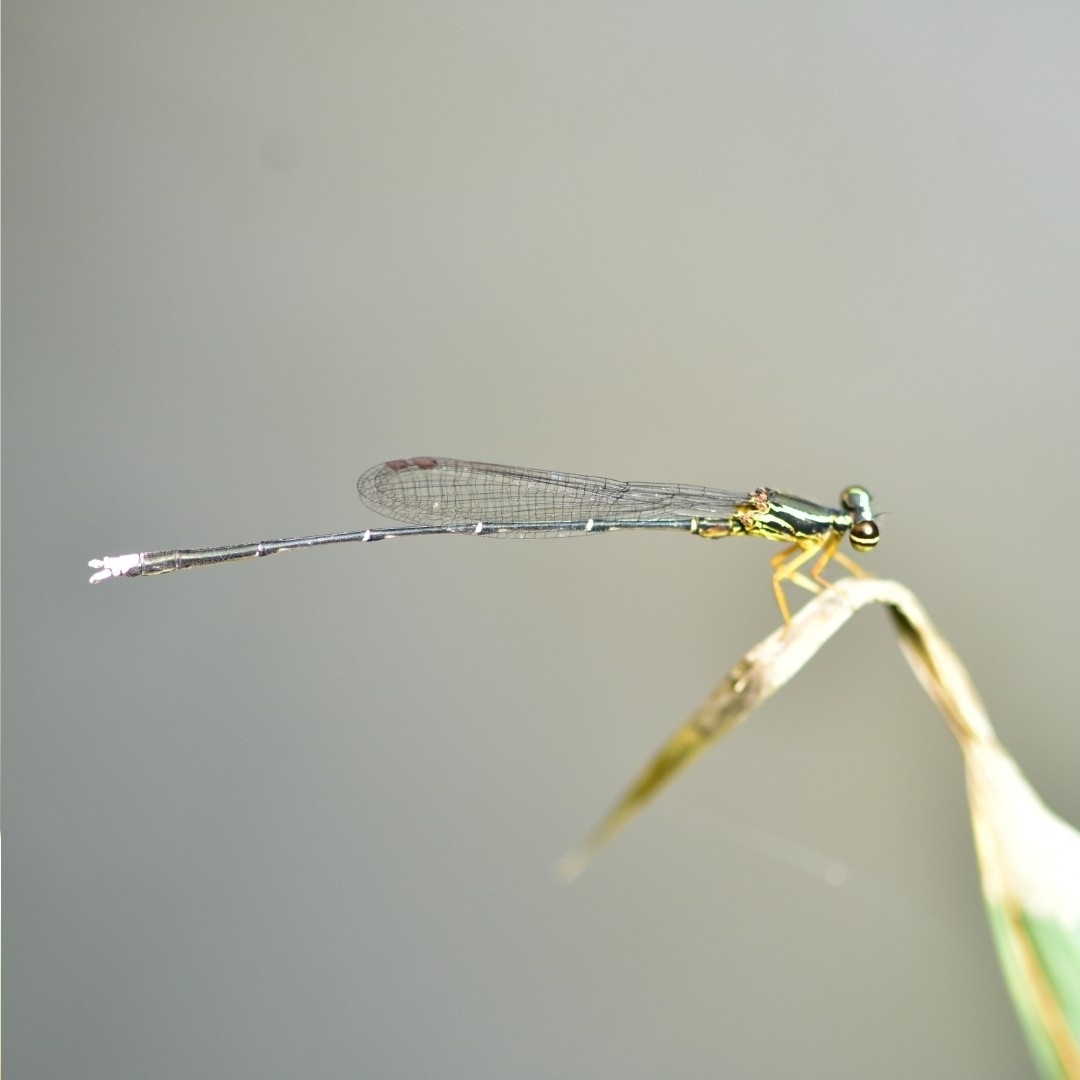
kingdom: Animalia
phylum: Arthropoda
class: Insecta
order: Odonata
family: Platycnemididae
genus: Copera
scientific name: Copera marginipes
